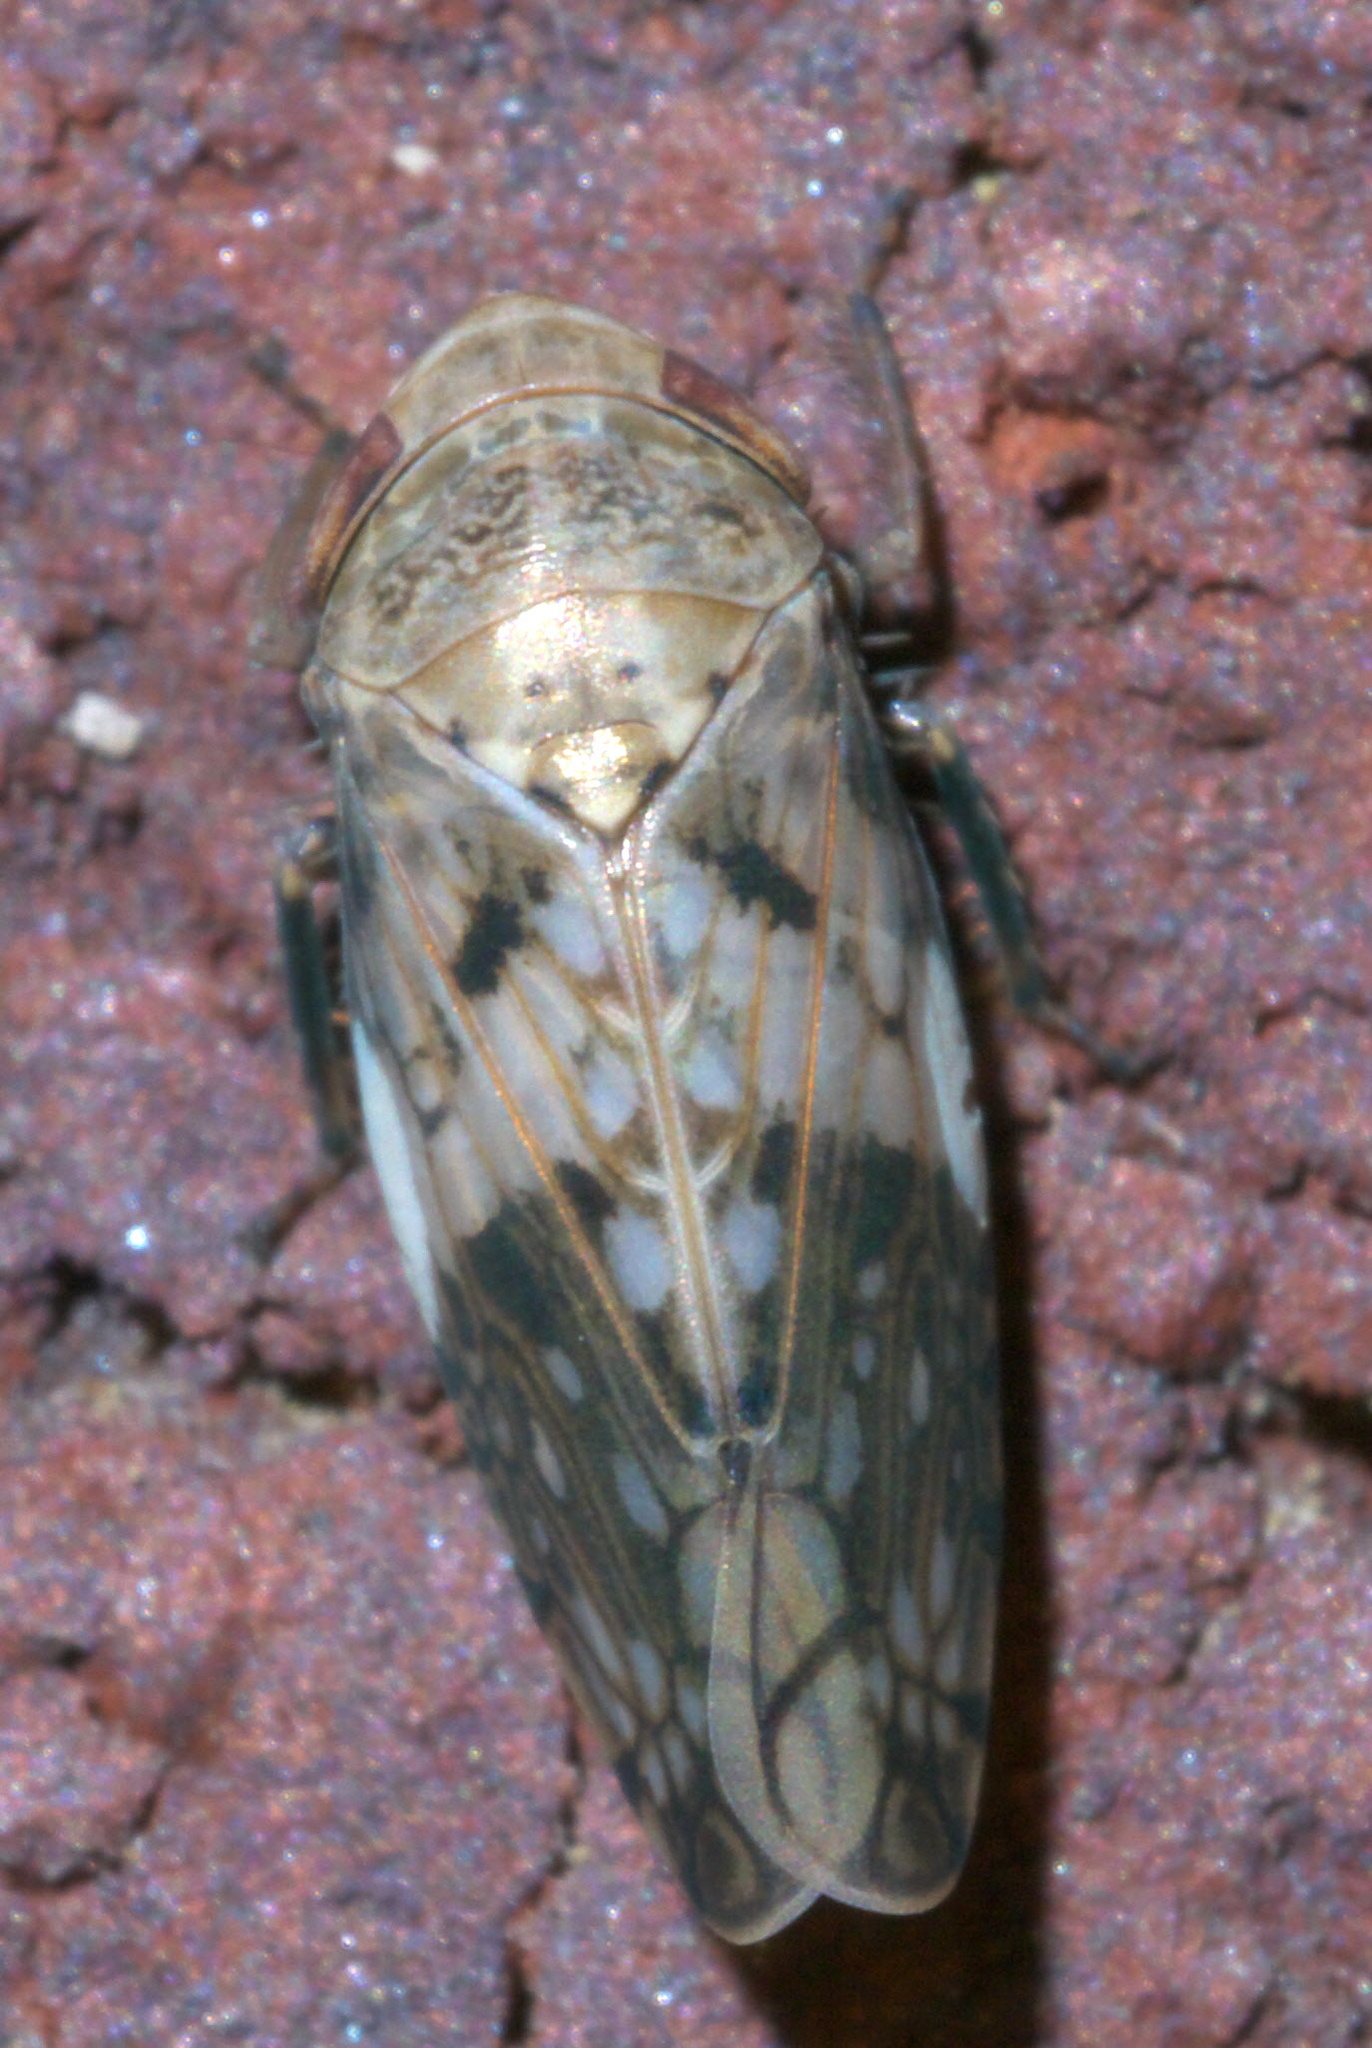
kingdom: Animalia
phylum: Arthropoda
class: Insecta
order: Hemiptera
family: Cicadellidae
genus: Menosoma
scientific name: Menosoma cinctum
